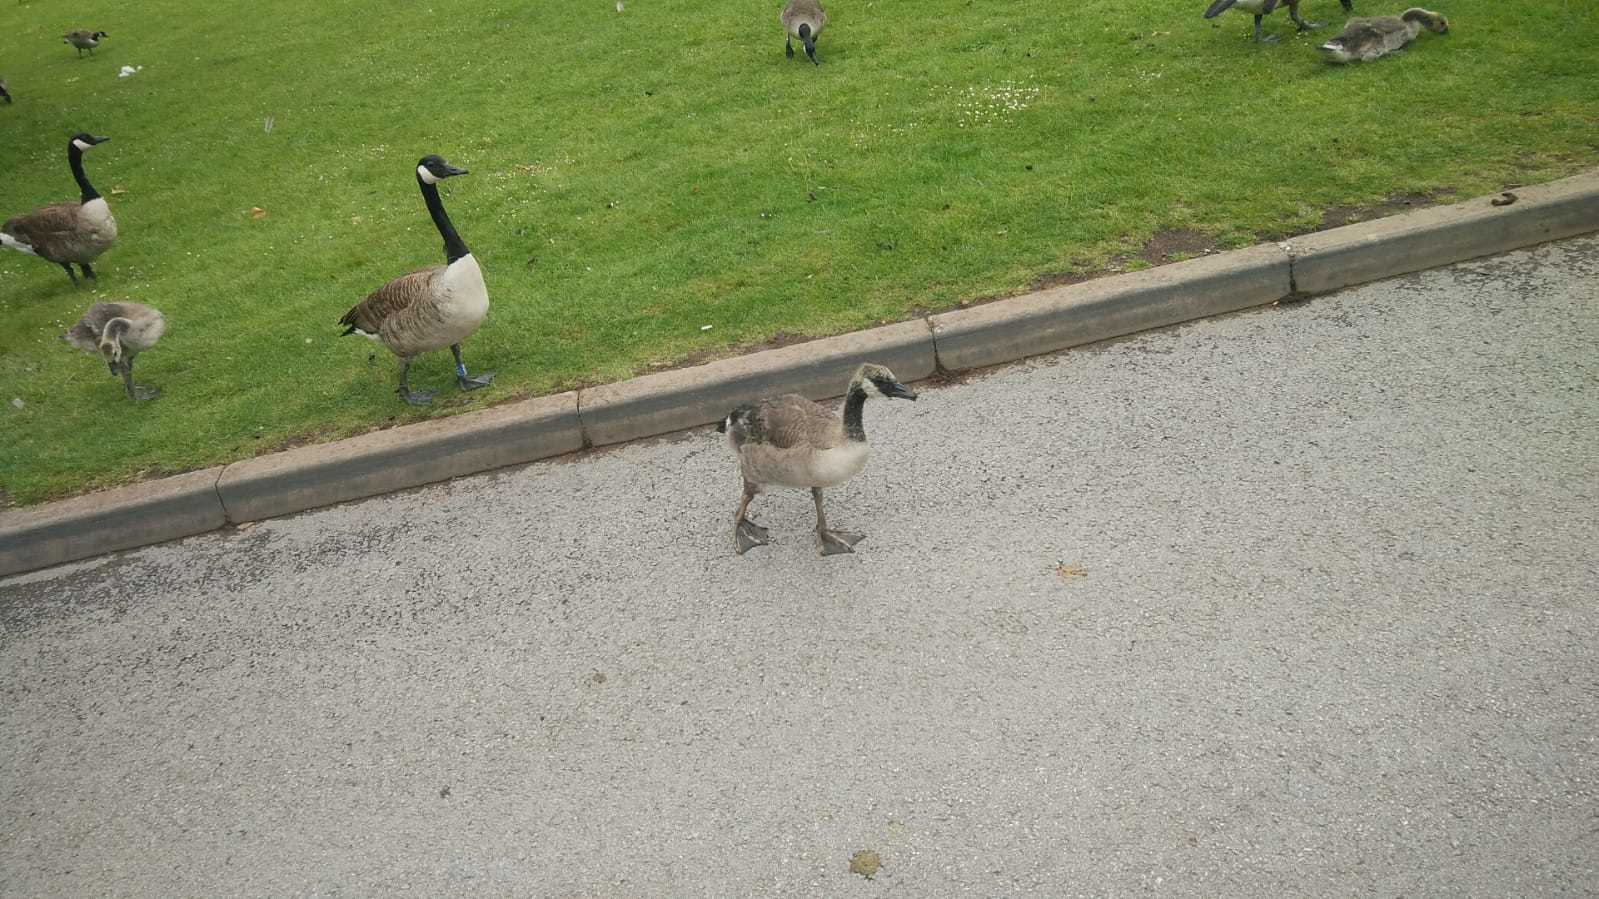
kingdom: Animalia
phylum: Chordata
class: Aves
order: Anseriformes
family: Anatidae
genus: Branta
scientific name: Branta canadensis
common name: Canada goose
